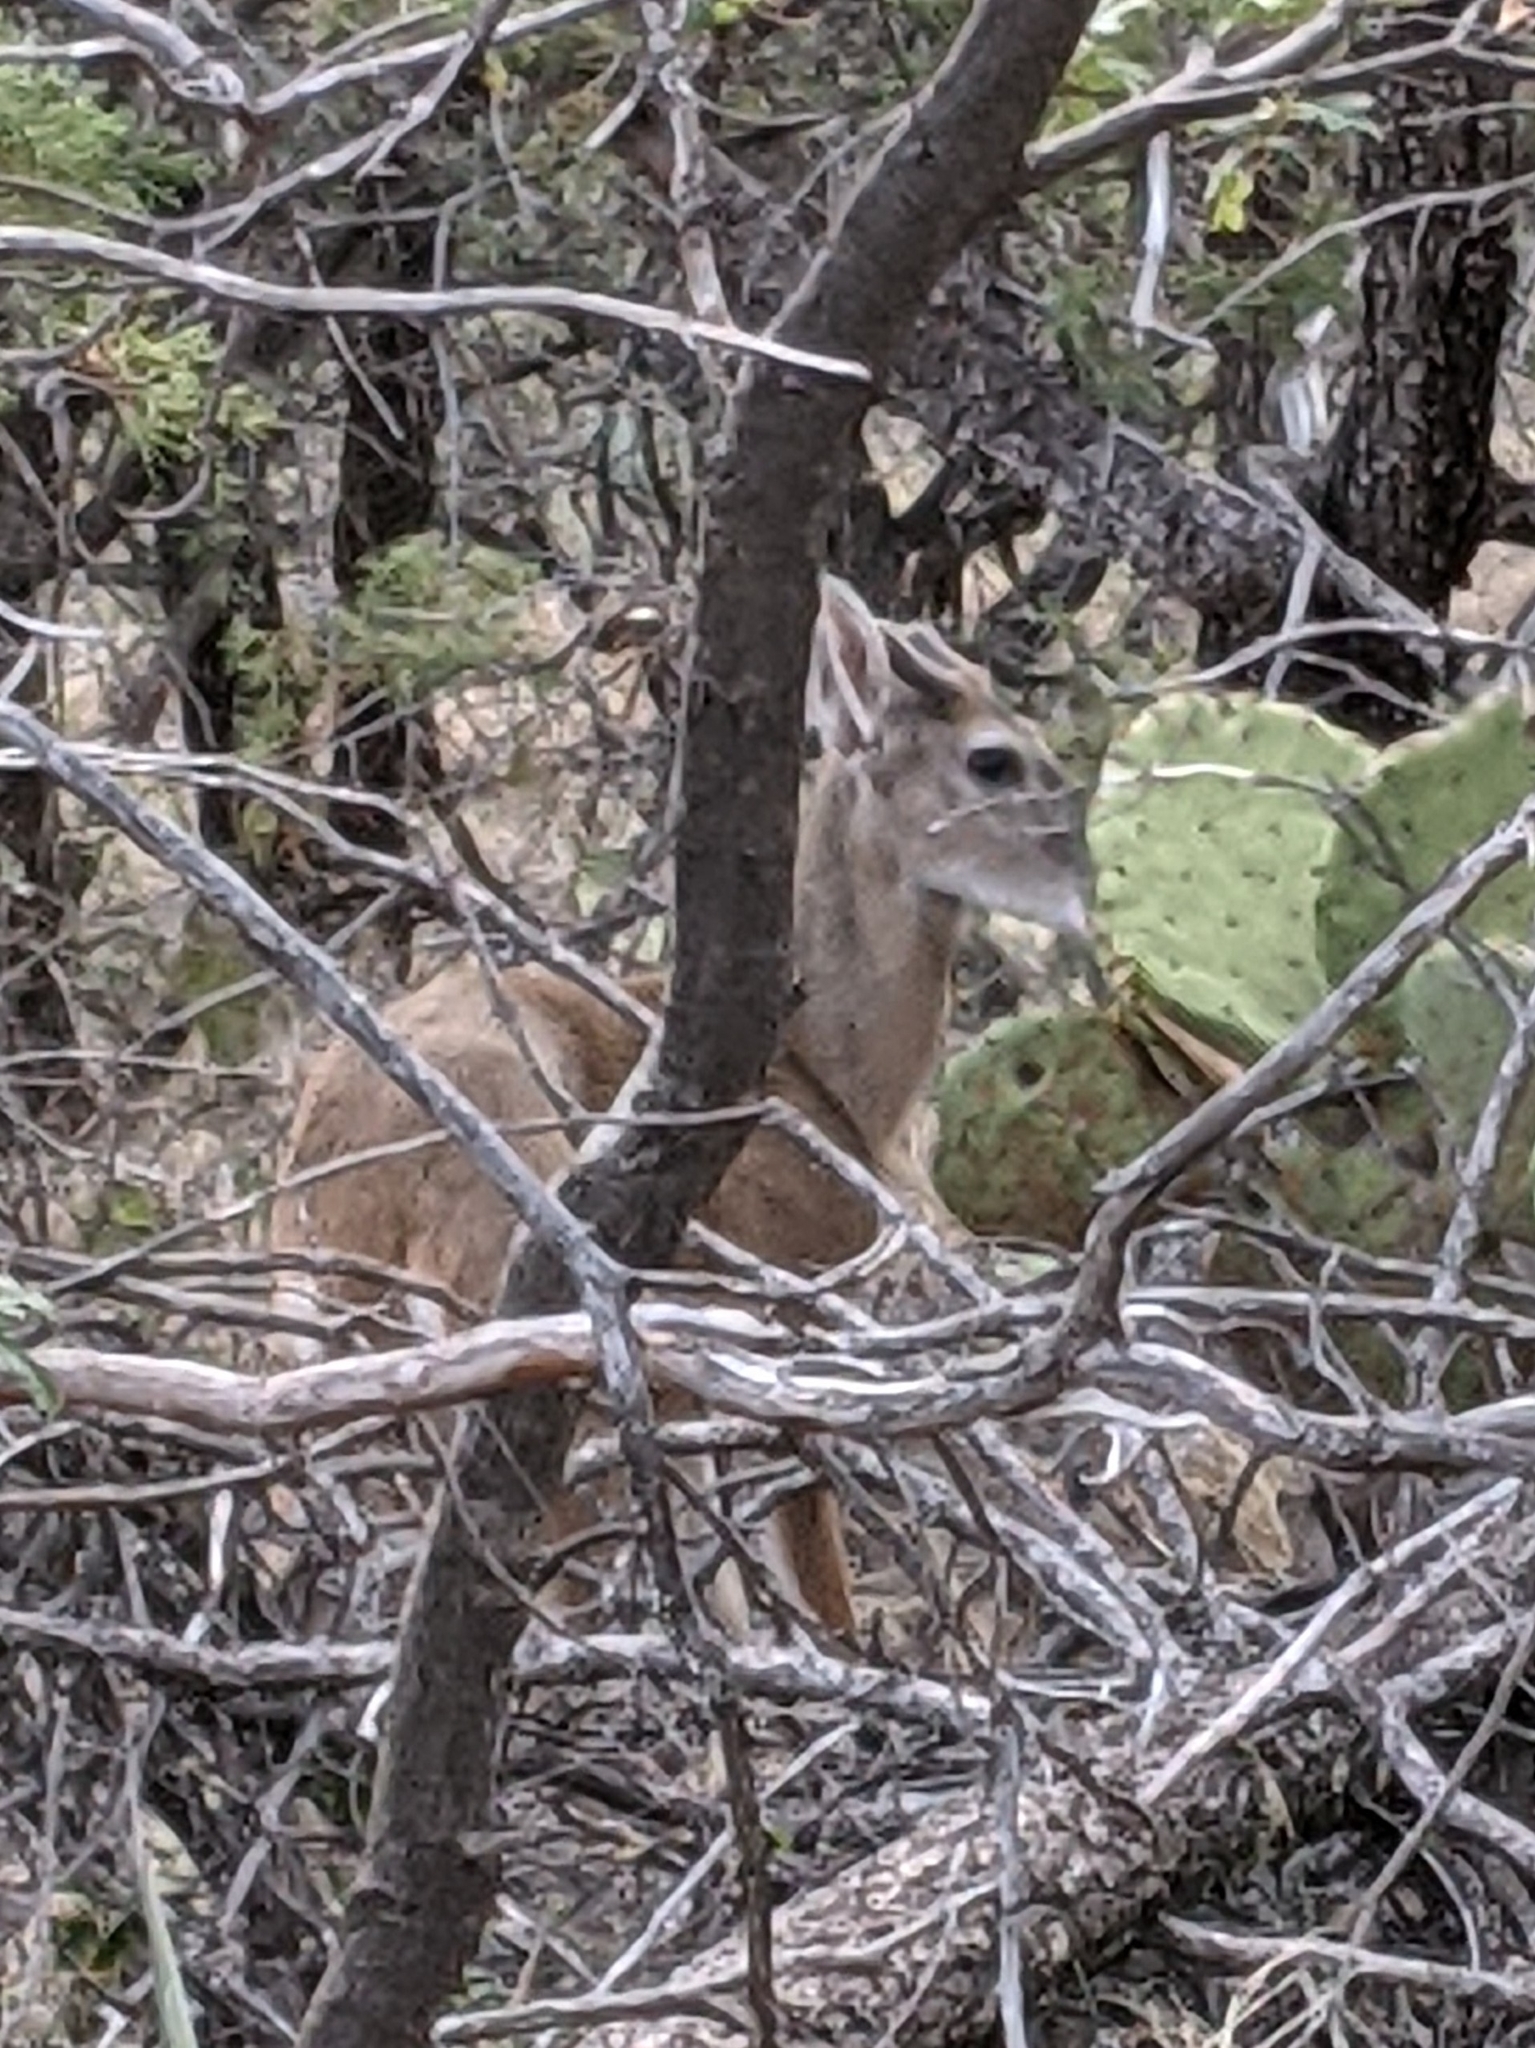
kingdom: Animalia
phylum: Chordata
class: Mammalia
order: Artiodactyla
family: Cervidae
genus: Odocoileus
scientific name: Odocoileus virginianus
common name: White-tailed deer
